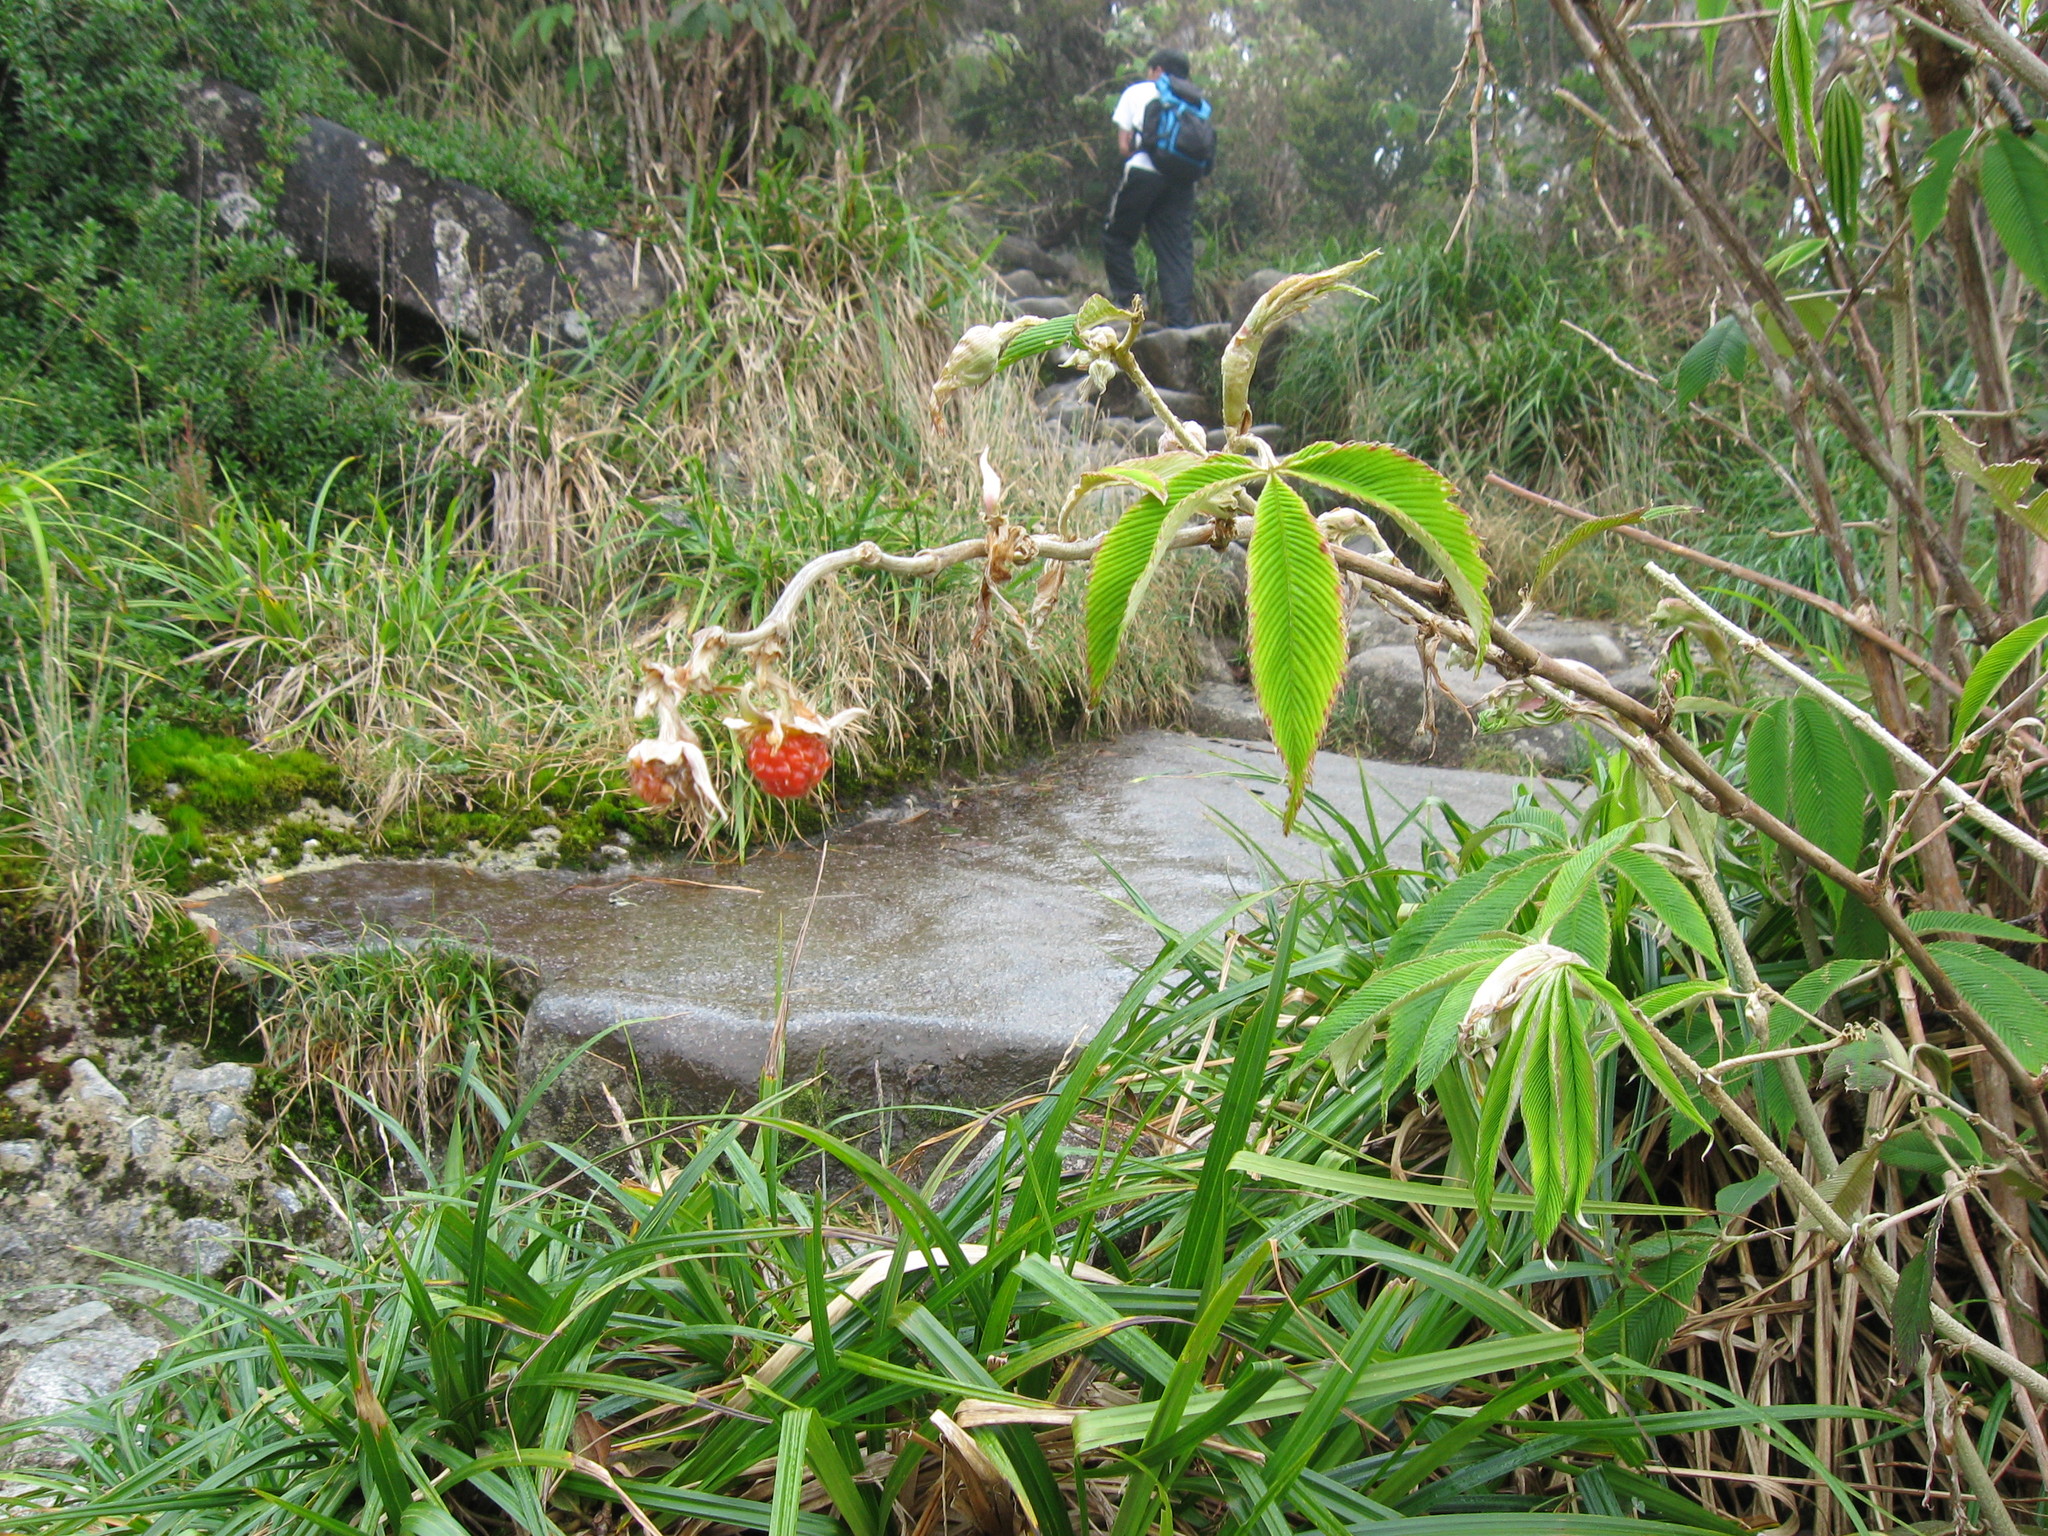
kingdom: Plantae
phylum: Tracheophyta
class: Magnoliopsida
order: Rosales
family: Rosaceae
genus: Rubus
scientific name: Rubus lineatus
